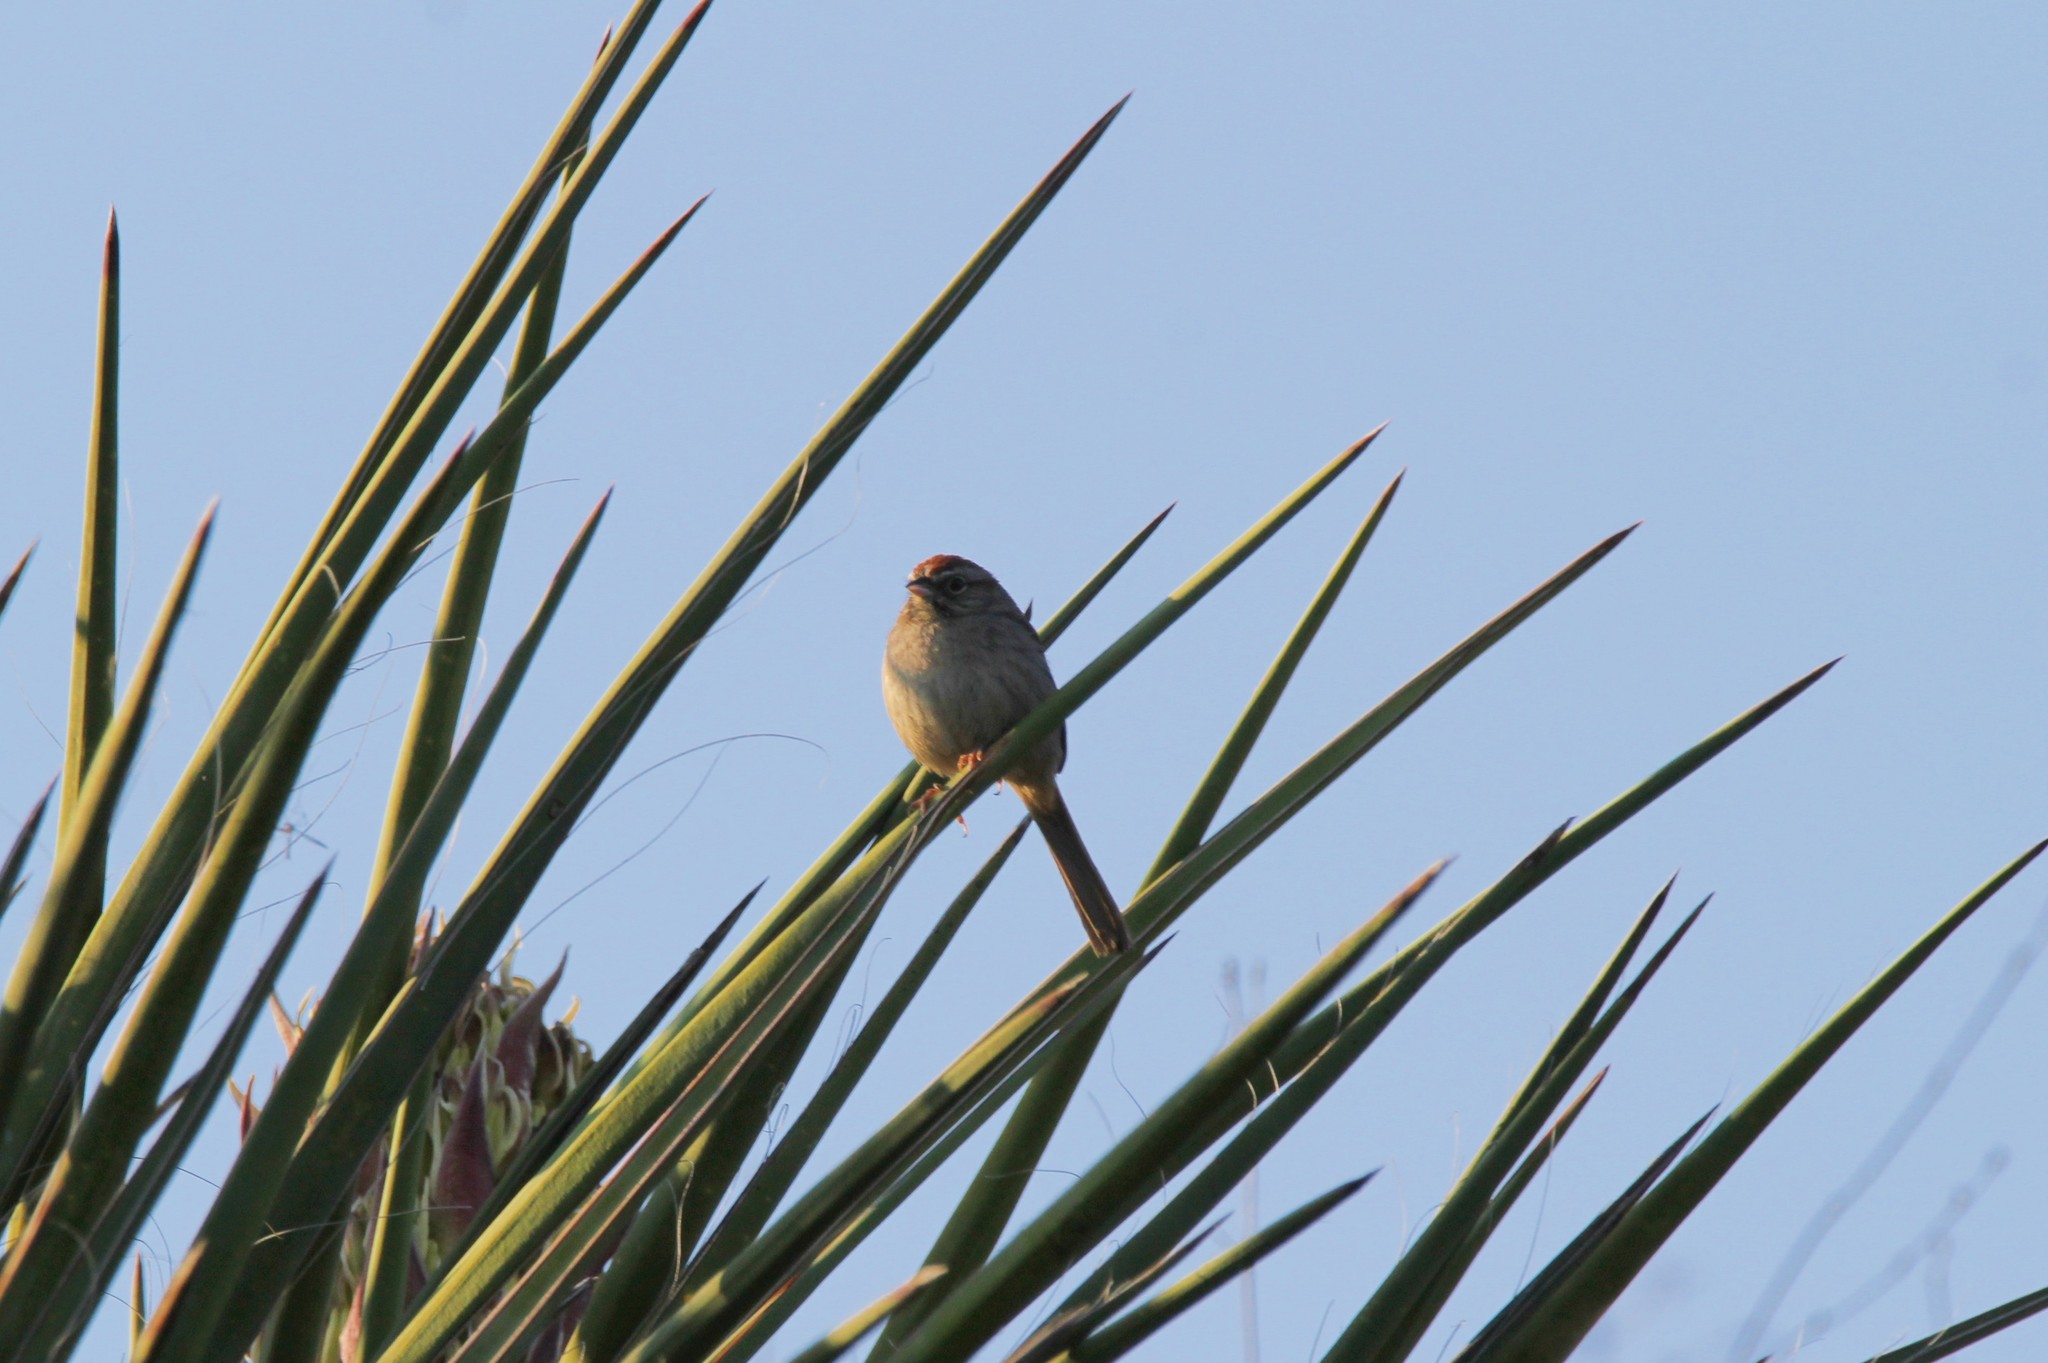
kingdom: Animalia
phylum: Chordata
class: Aves
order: Passeriformes
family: Passerellidae
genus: Aimophila
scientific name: Aimophila ruficeps
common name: Rufous-crowned sparrow
